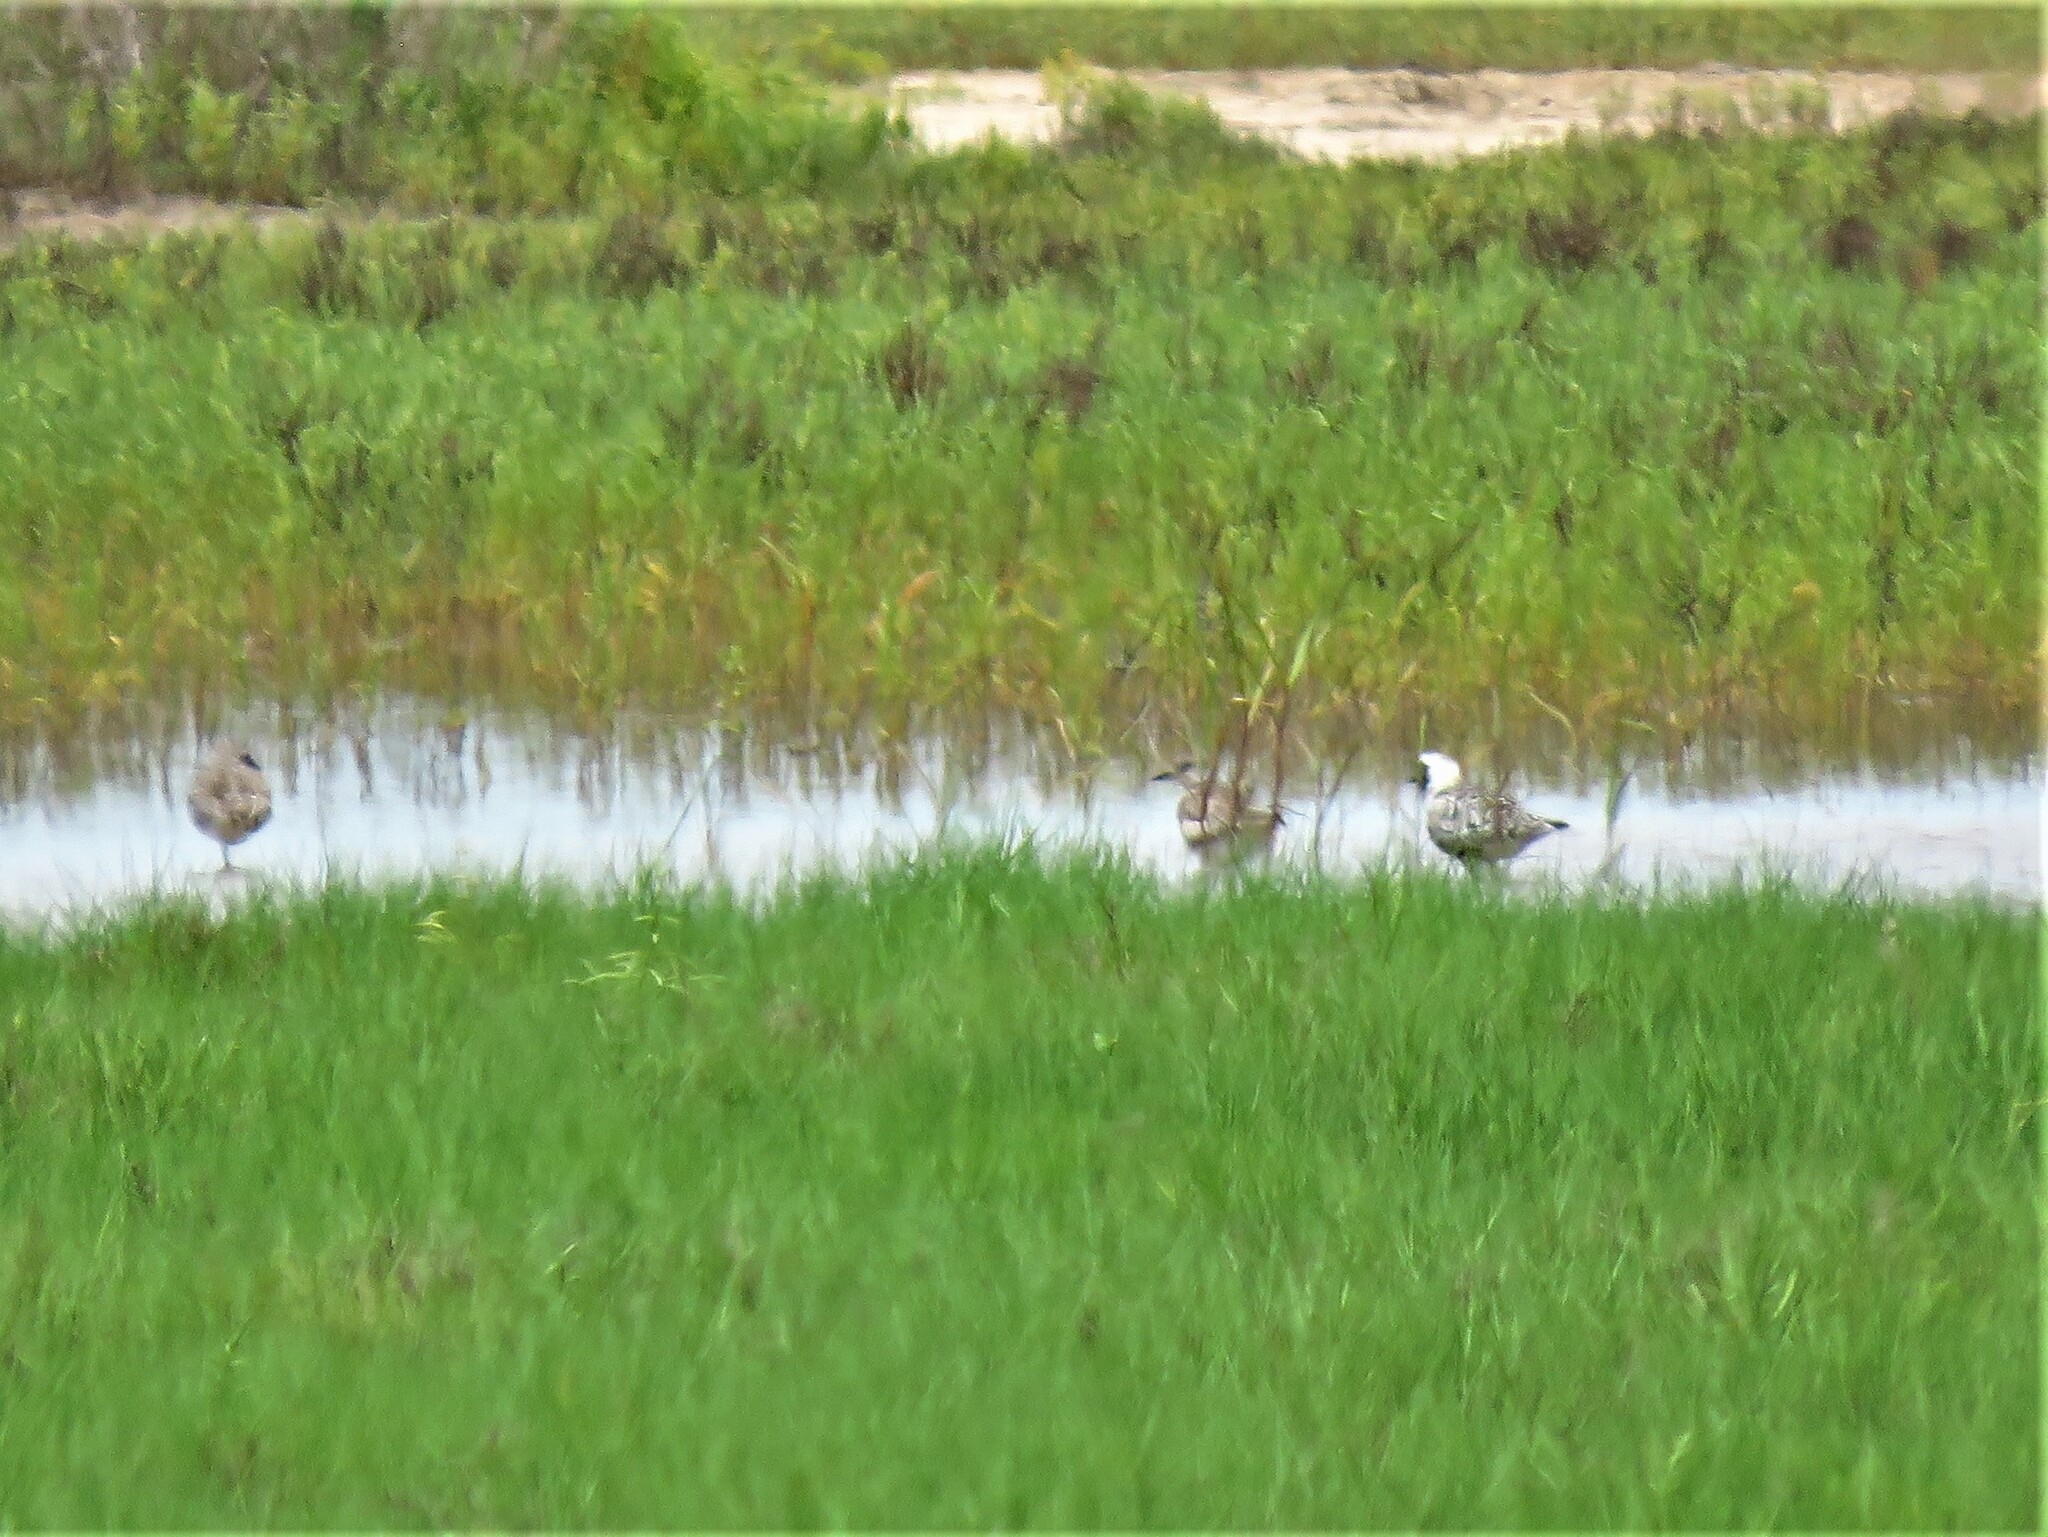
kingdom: Animalia
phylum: Chordata
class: Aves
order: Charadriiformes
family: Charadriidae
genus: Pluvialis
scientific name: Pluvialis squatarola
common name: Grey plover
